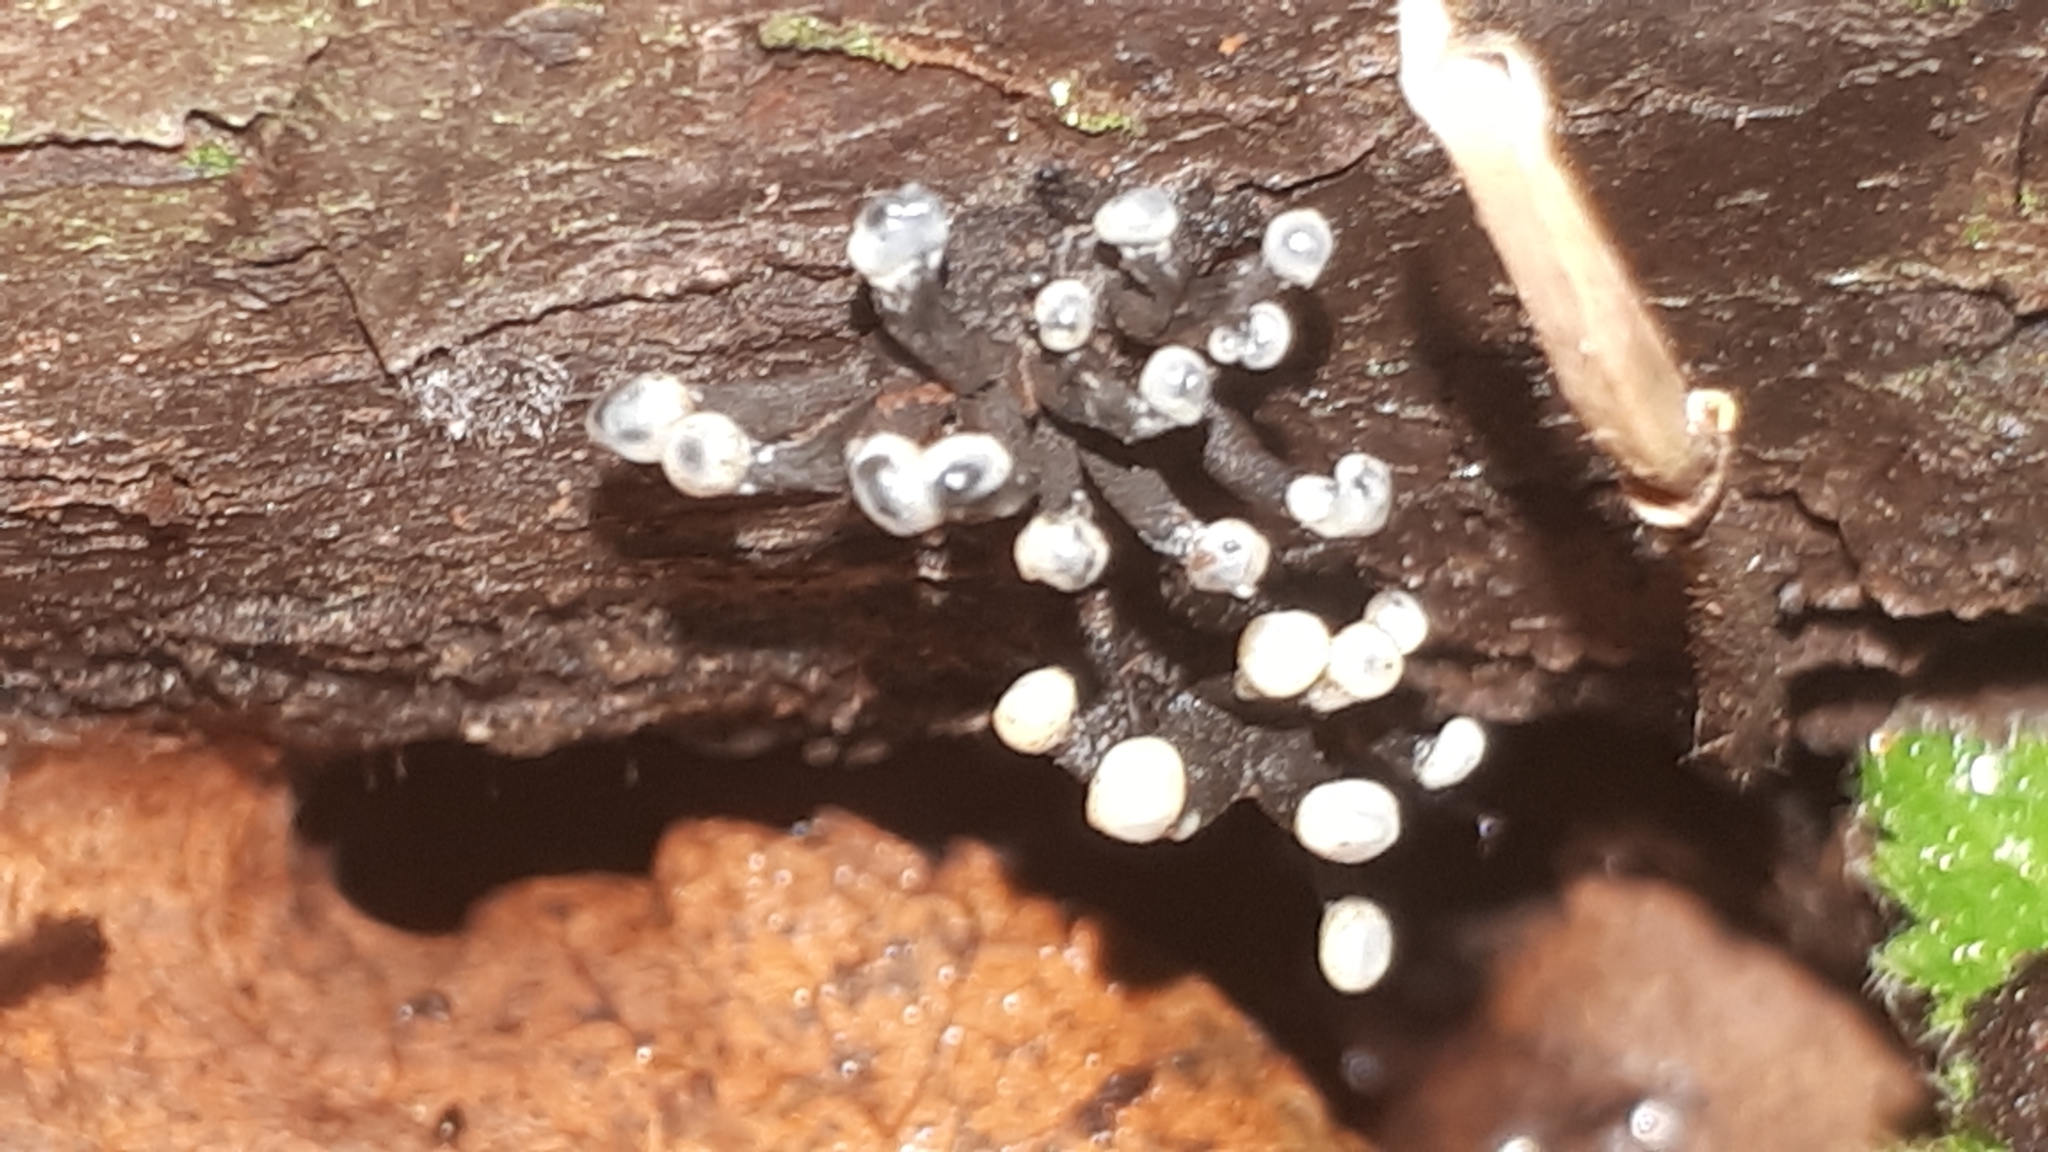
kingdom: Fungi
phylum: Ascomycota
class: Leotiomycetes
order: Helotiales
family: Bulgariaceae
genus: Holwaya
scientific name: Holwaya mucida
